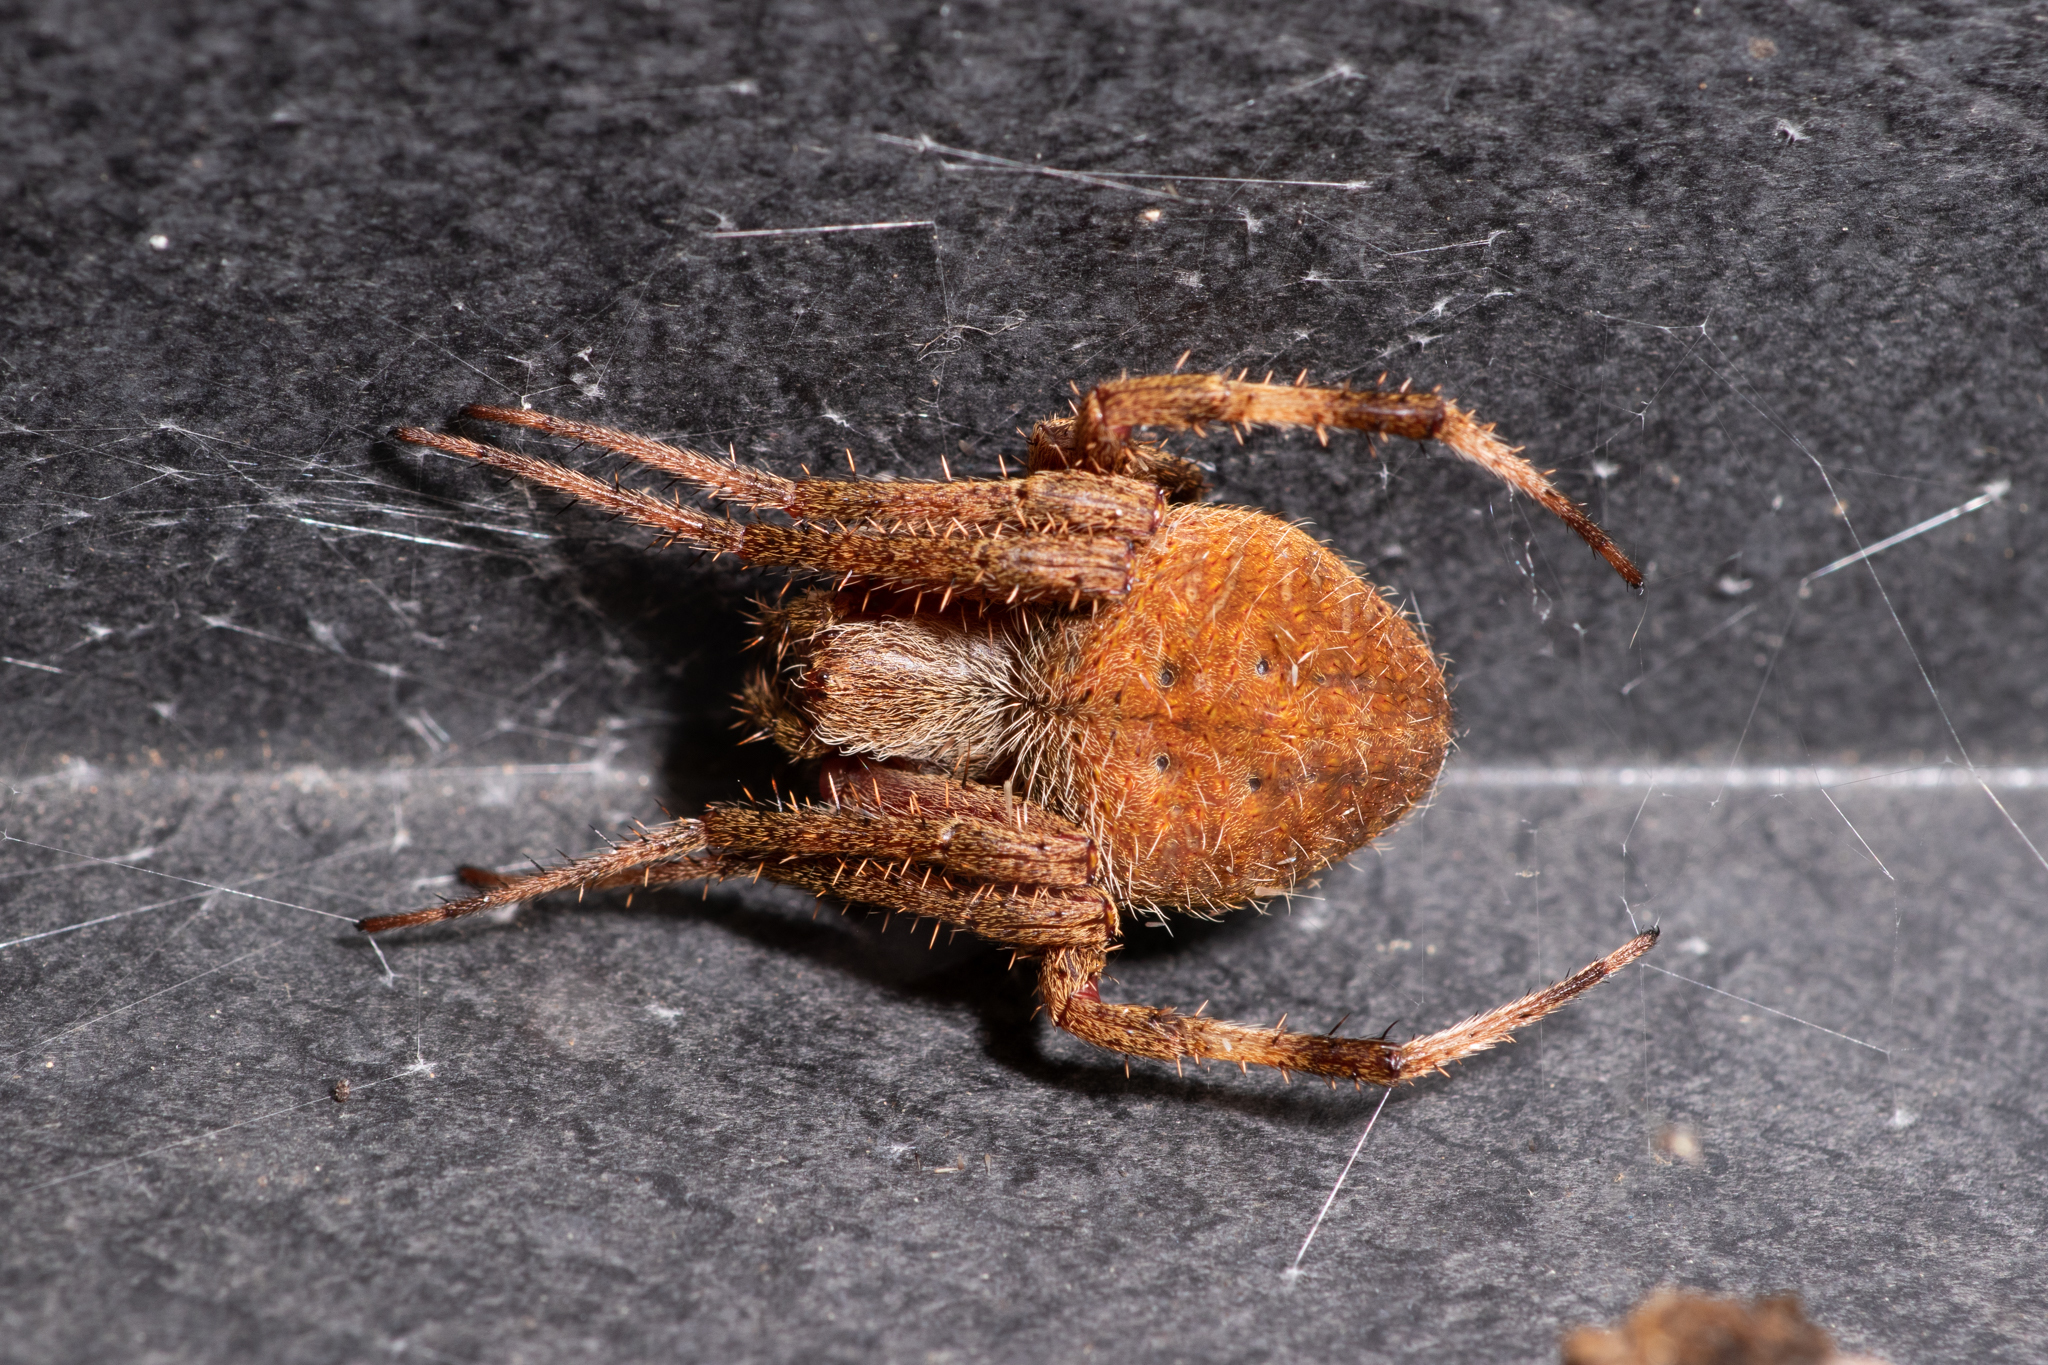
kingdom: Animalia
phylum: Arthropoda
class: Arachnida
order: Araneae
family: Araneidae
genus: Neoscona
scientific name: Neoscona crucifera
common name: Spotted orbweaver
